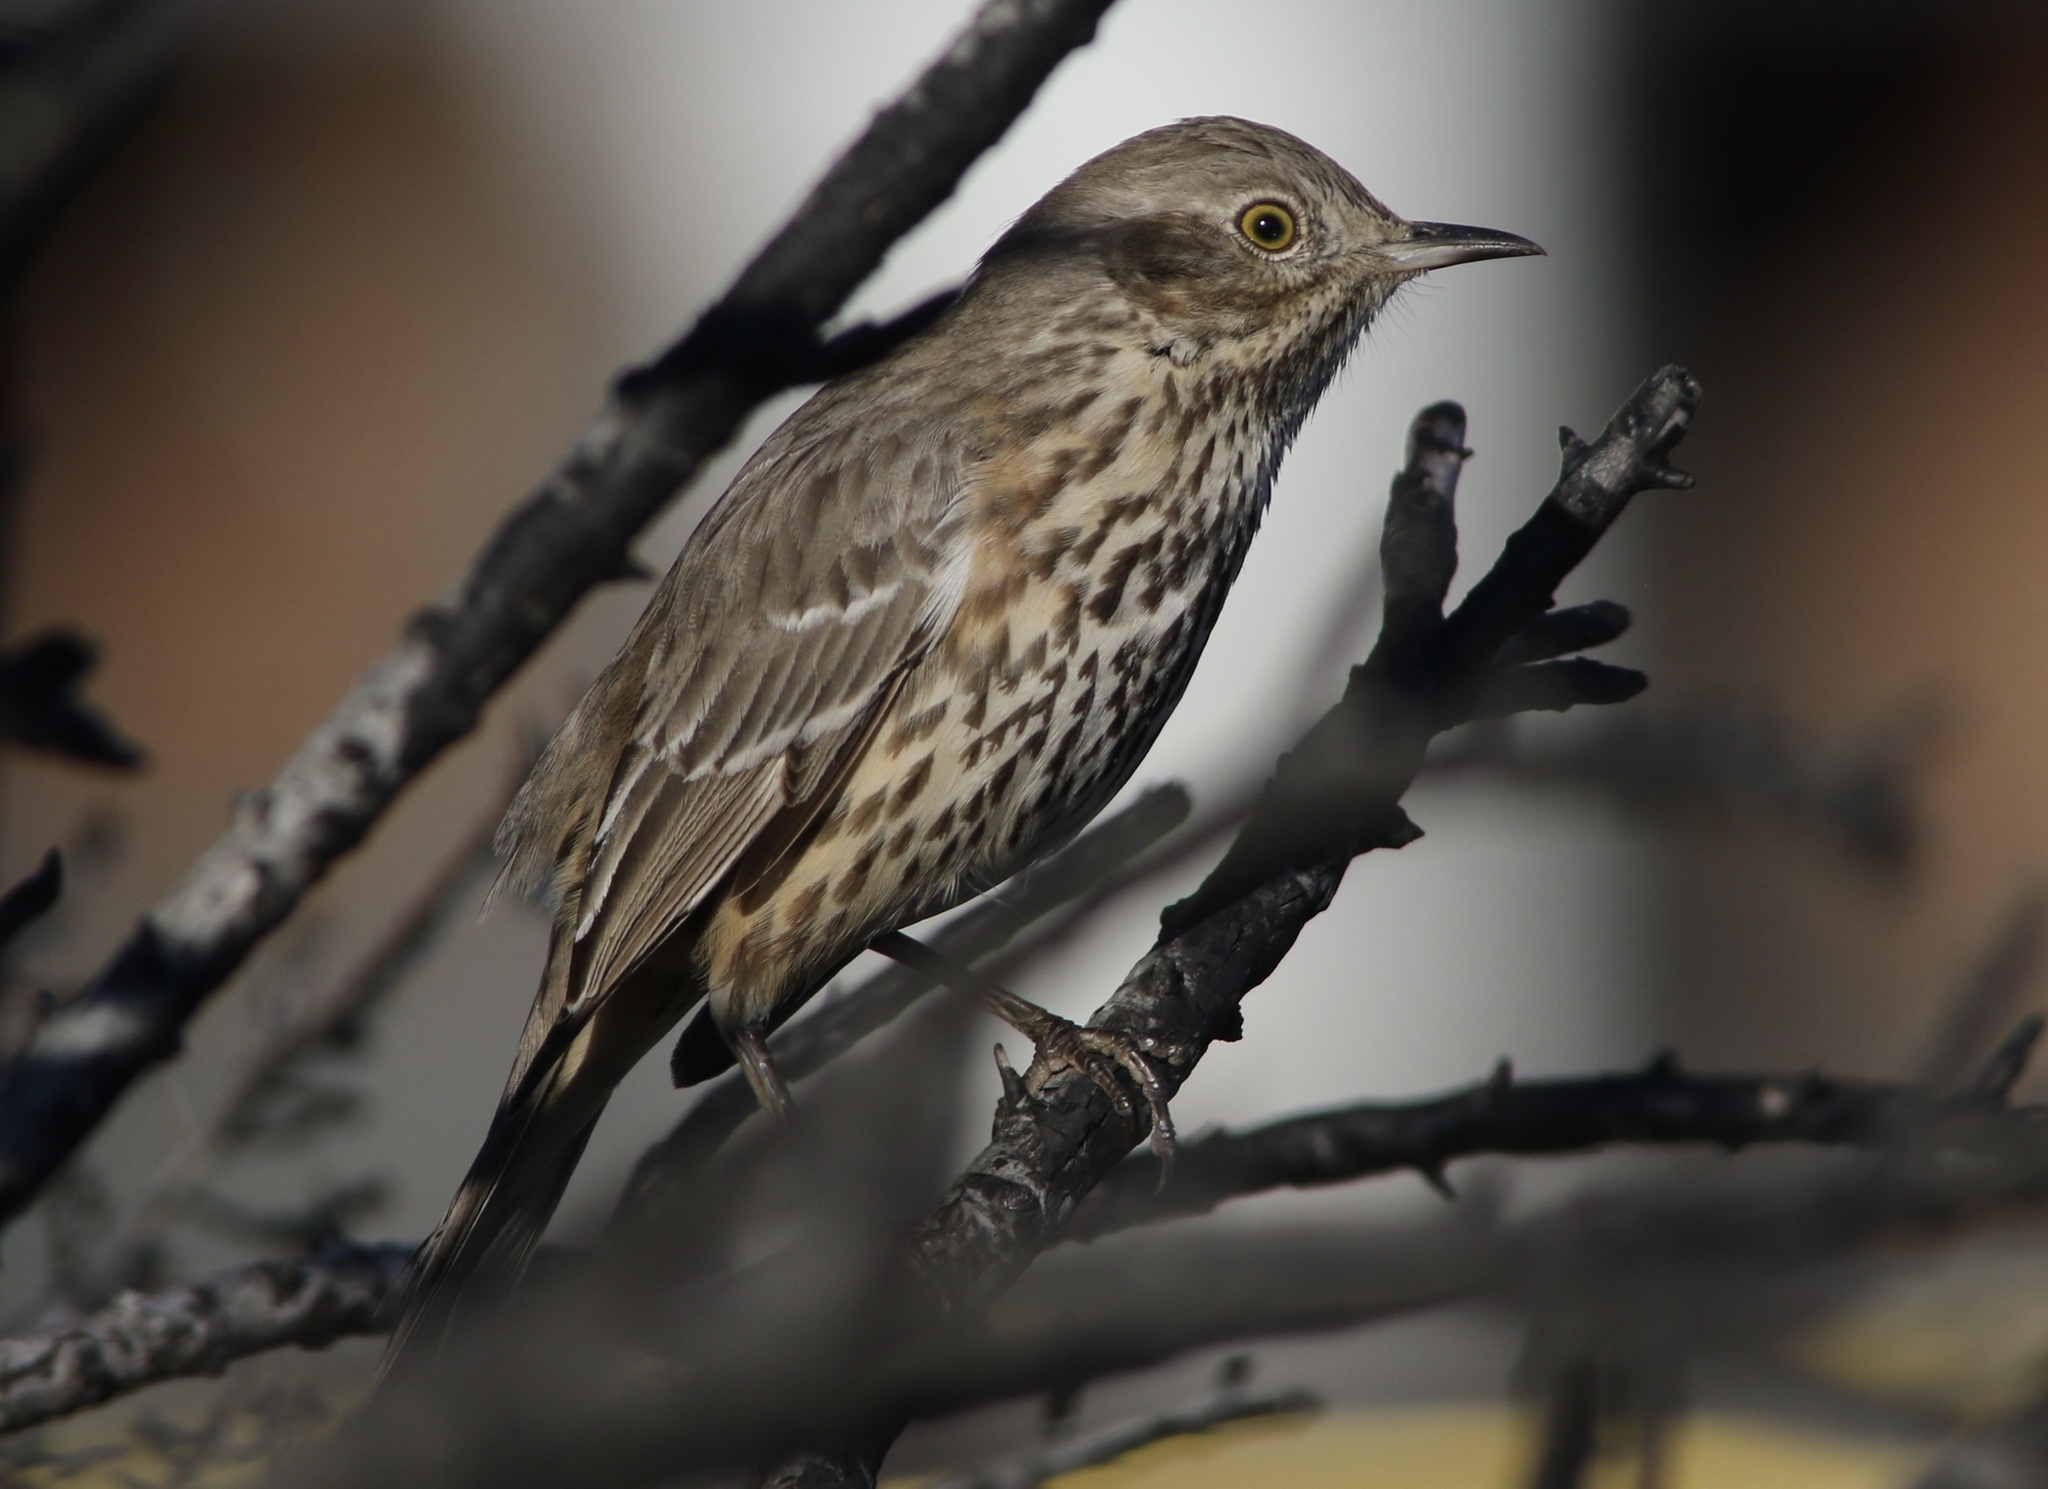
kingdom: Animalia
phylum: Chordata
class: Aves
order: Passeriformes
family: Mimidae
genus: Oreoscoptes
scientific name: Oreoscoptes montanus
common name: Sage thrasher
